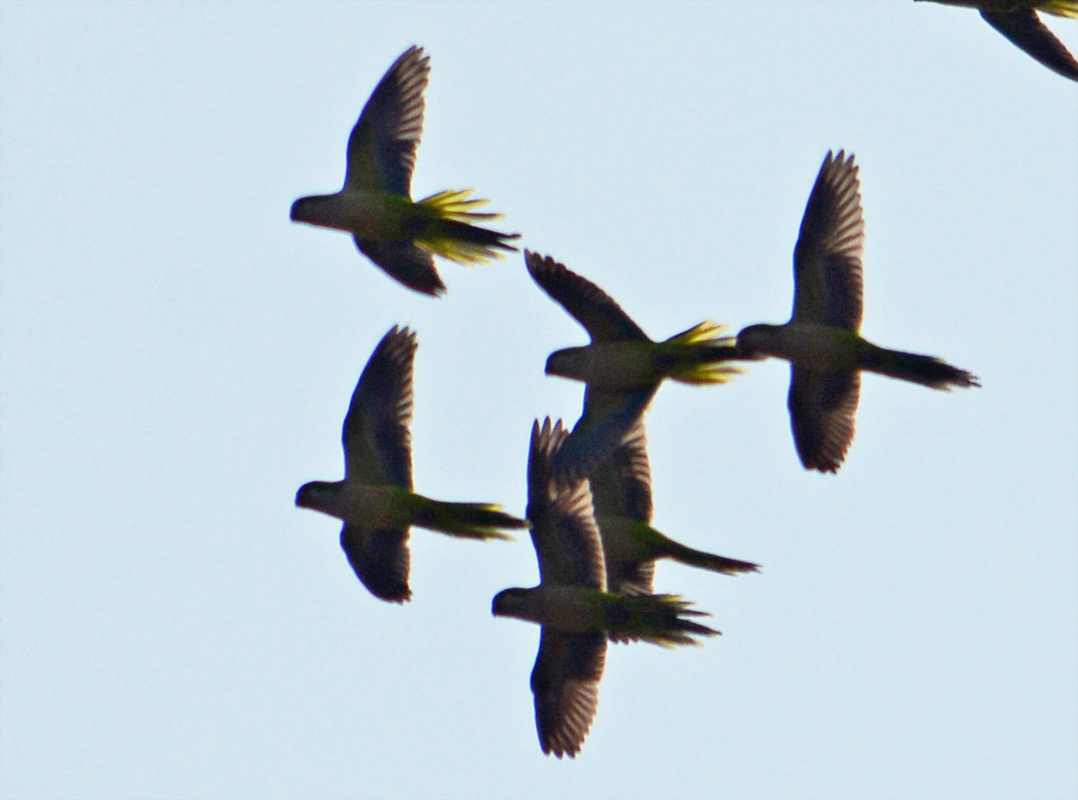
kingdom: Animalia
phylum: Chordata
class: Aves
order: Psittaciformes
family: Psittacidae
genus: Myiopsitta
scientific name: Myiopsitta monachus
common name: Monk parakeet
